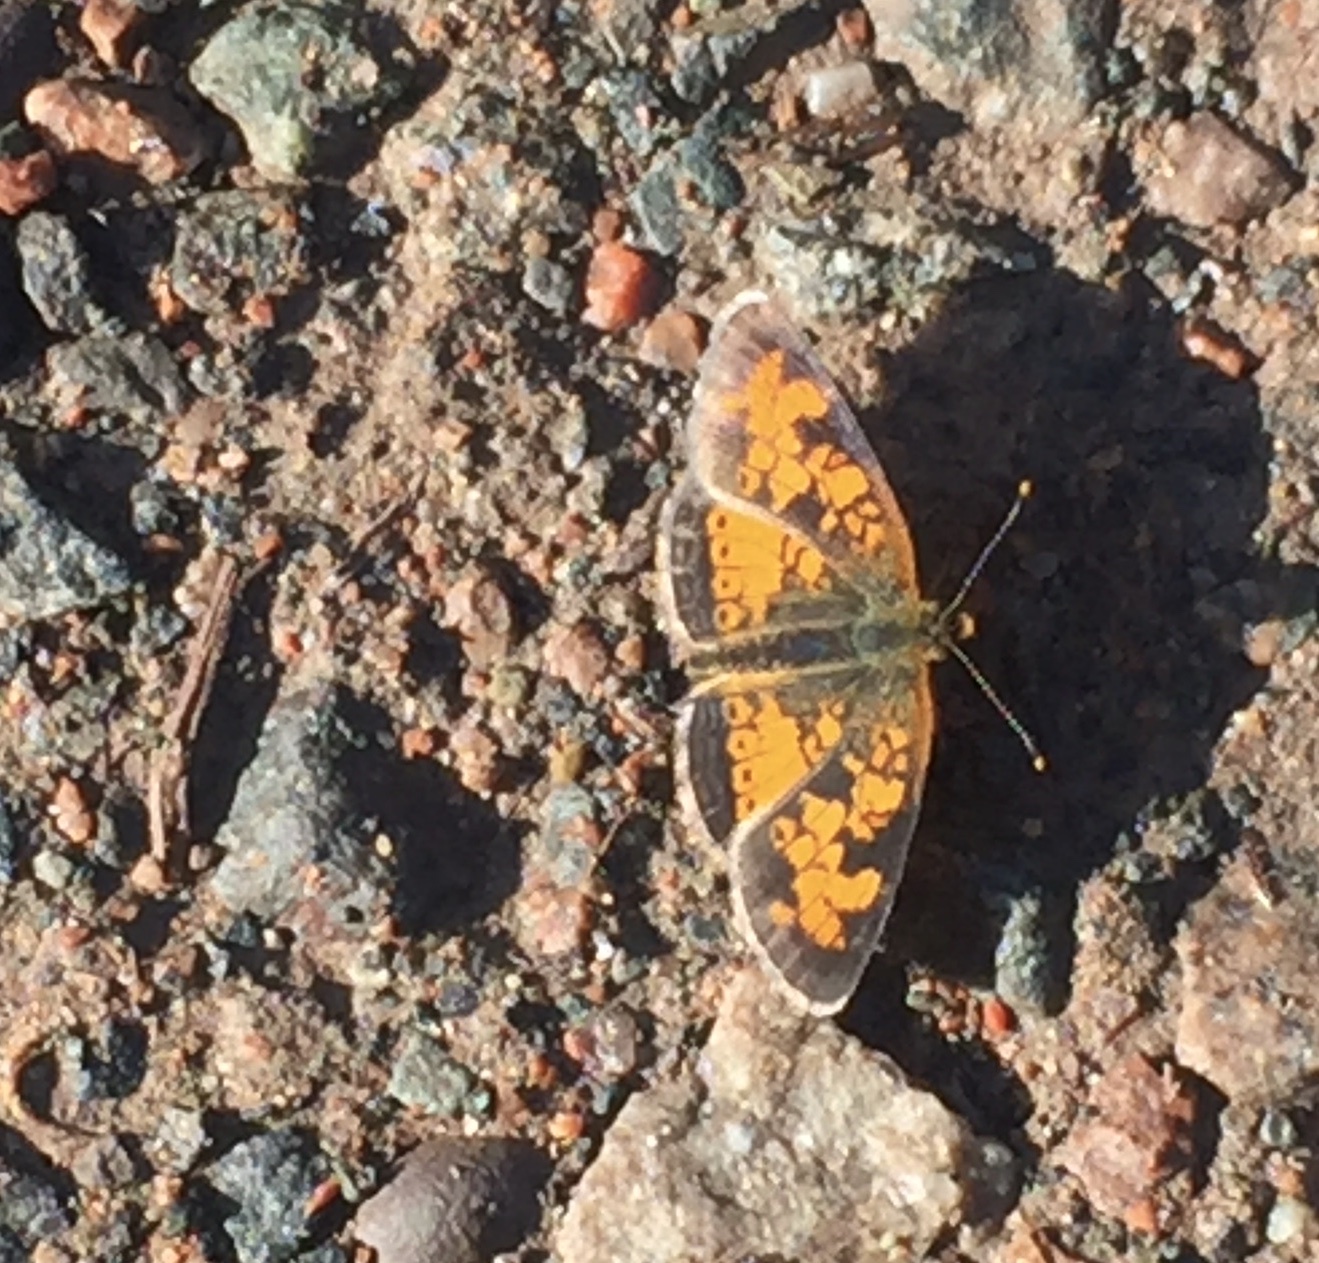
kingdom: Animalia
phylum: Arthropoda
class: Insecta
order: Lepidoptera
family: Nymphalidae
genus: Phyciodes
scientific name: Phyciodes tharos
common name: Pearl crescent
